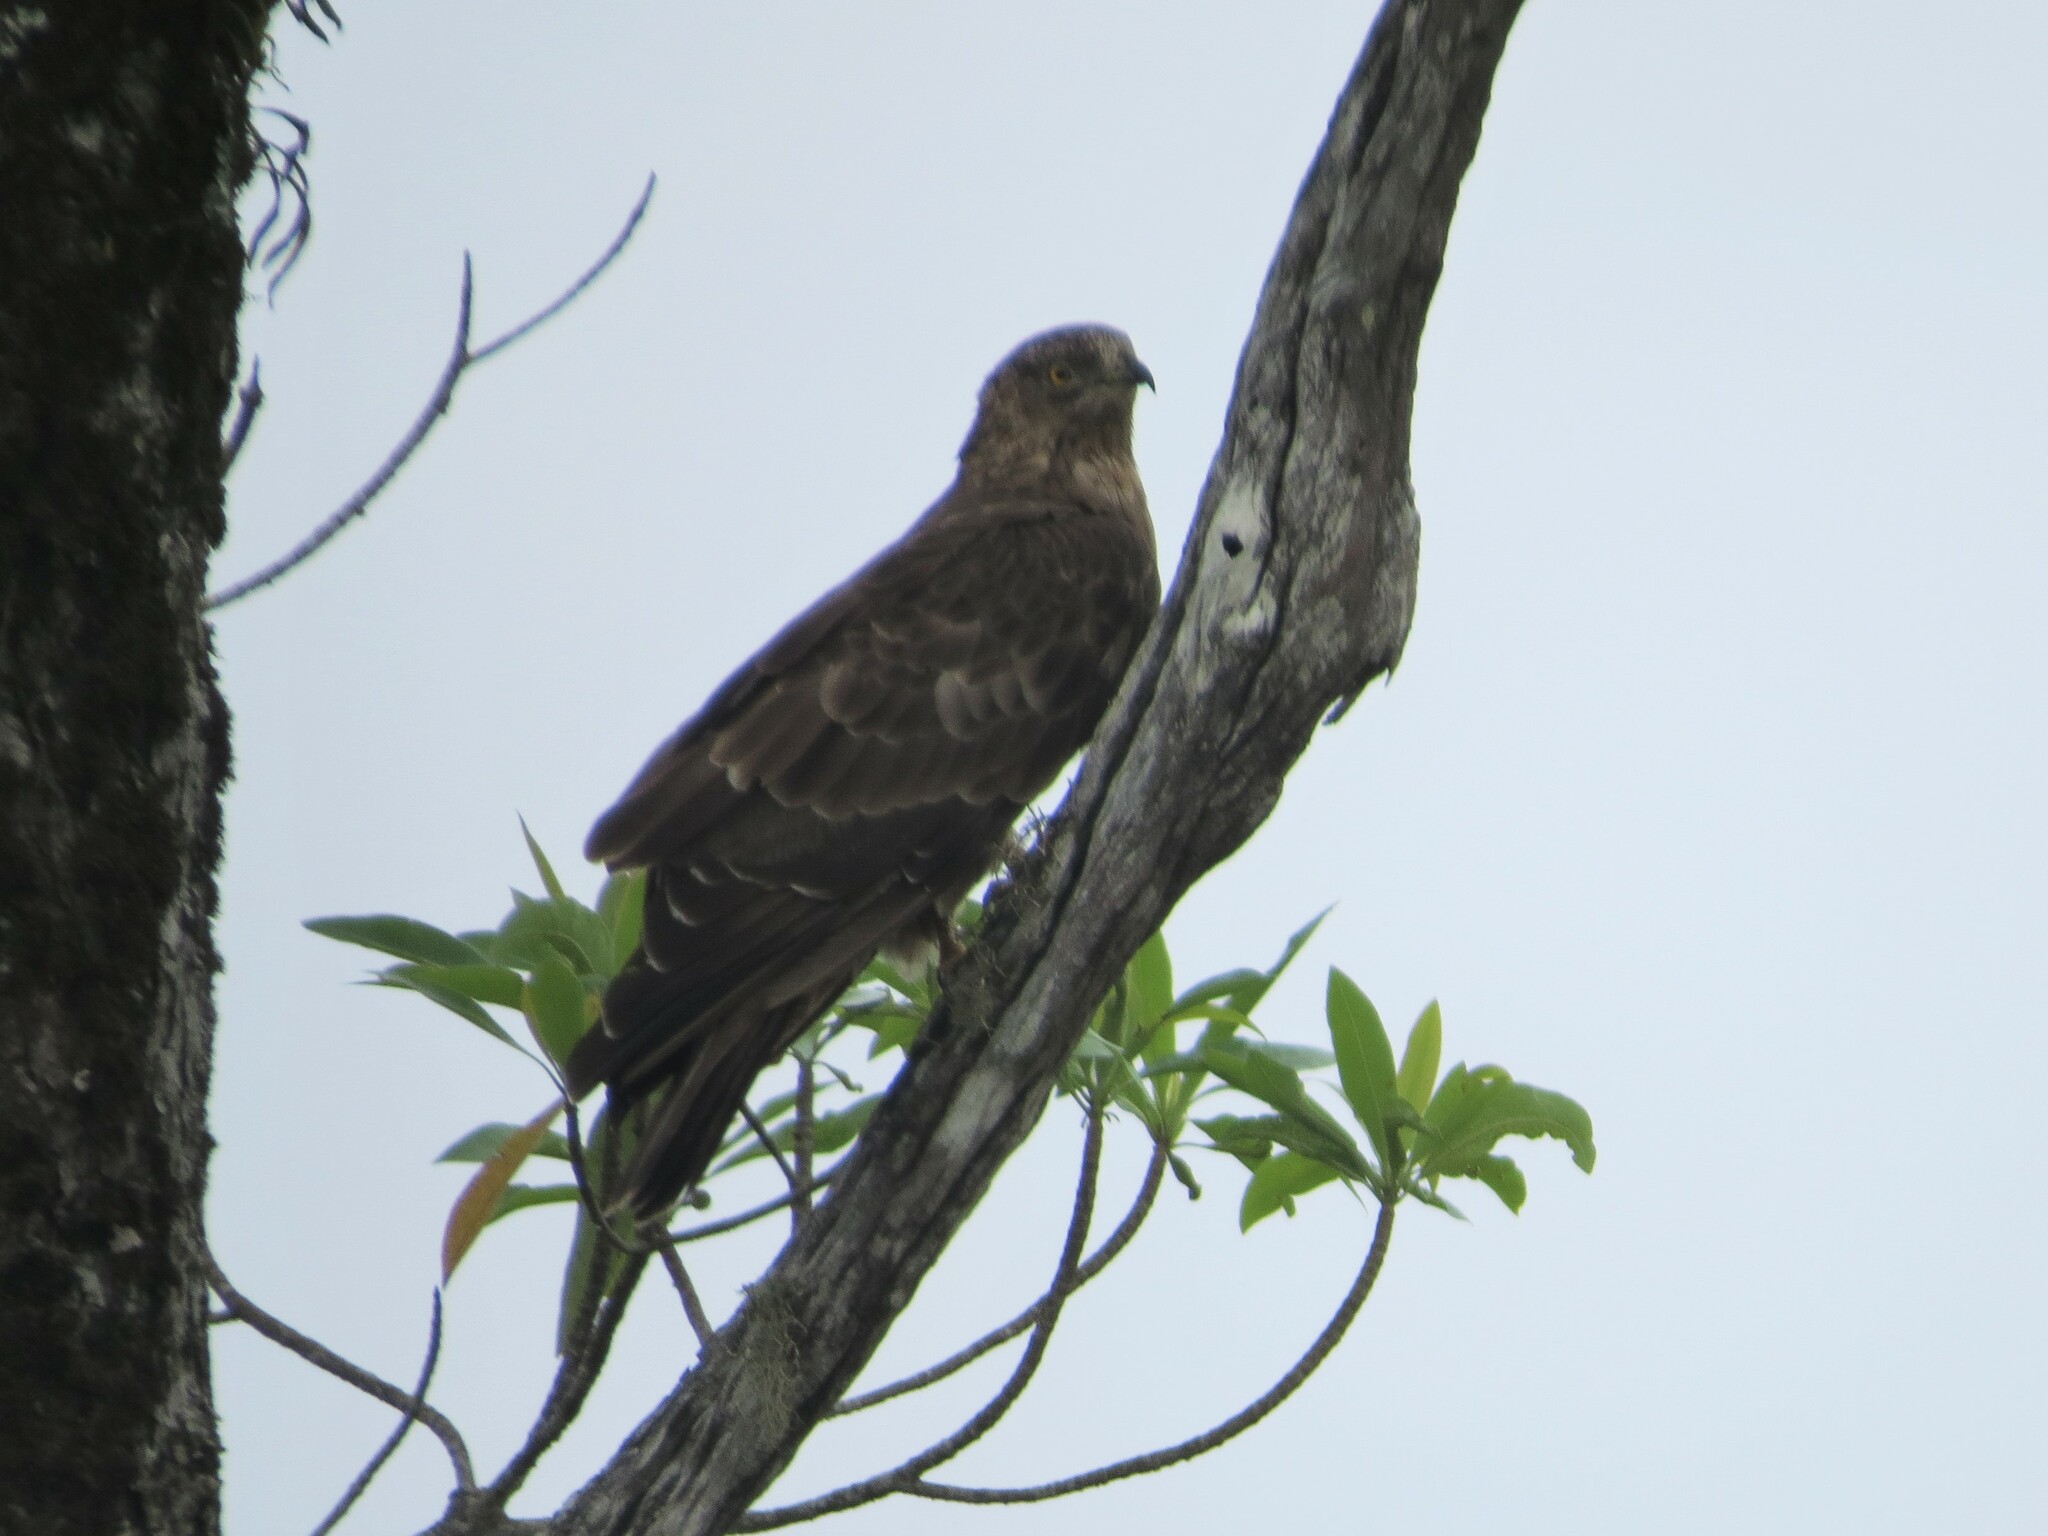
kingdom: Animalia
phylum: Chordata
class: Aves
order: Accipitriformes
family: Accipitridae
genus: Pernis
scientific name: Pernis apivorus
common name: European honey buzzard
